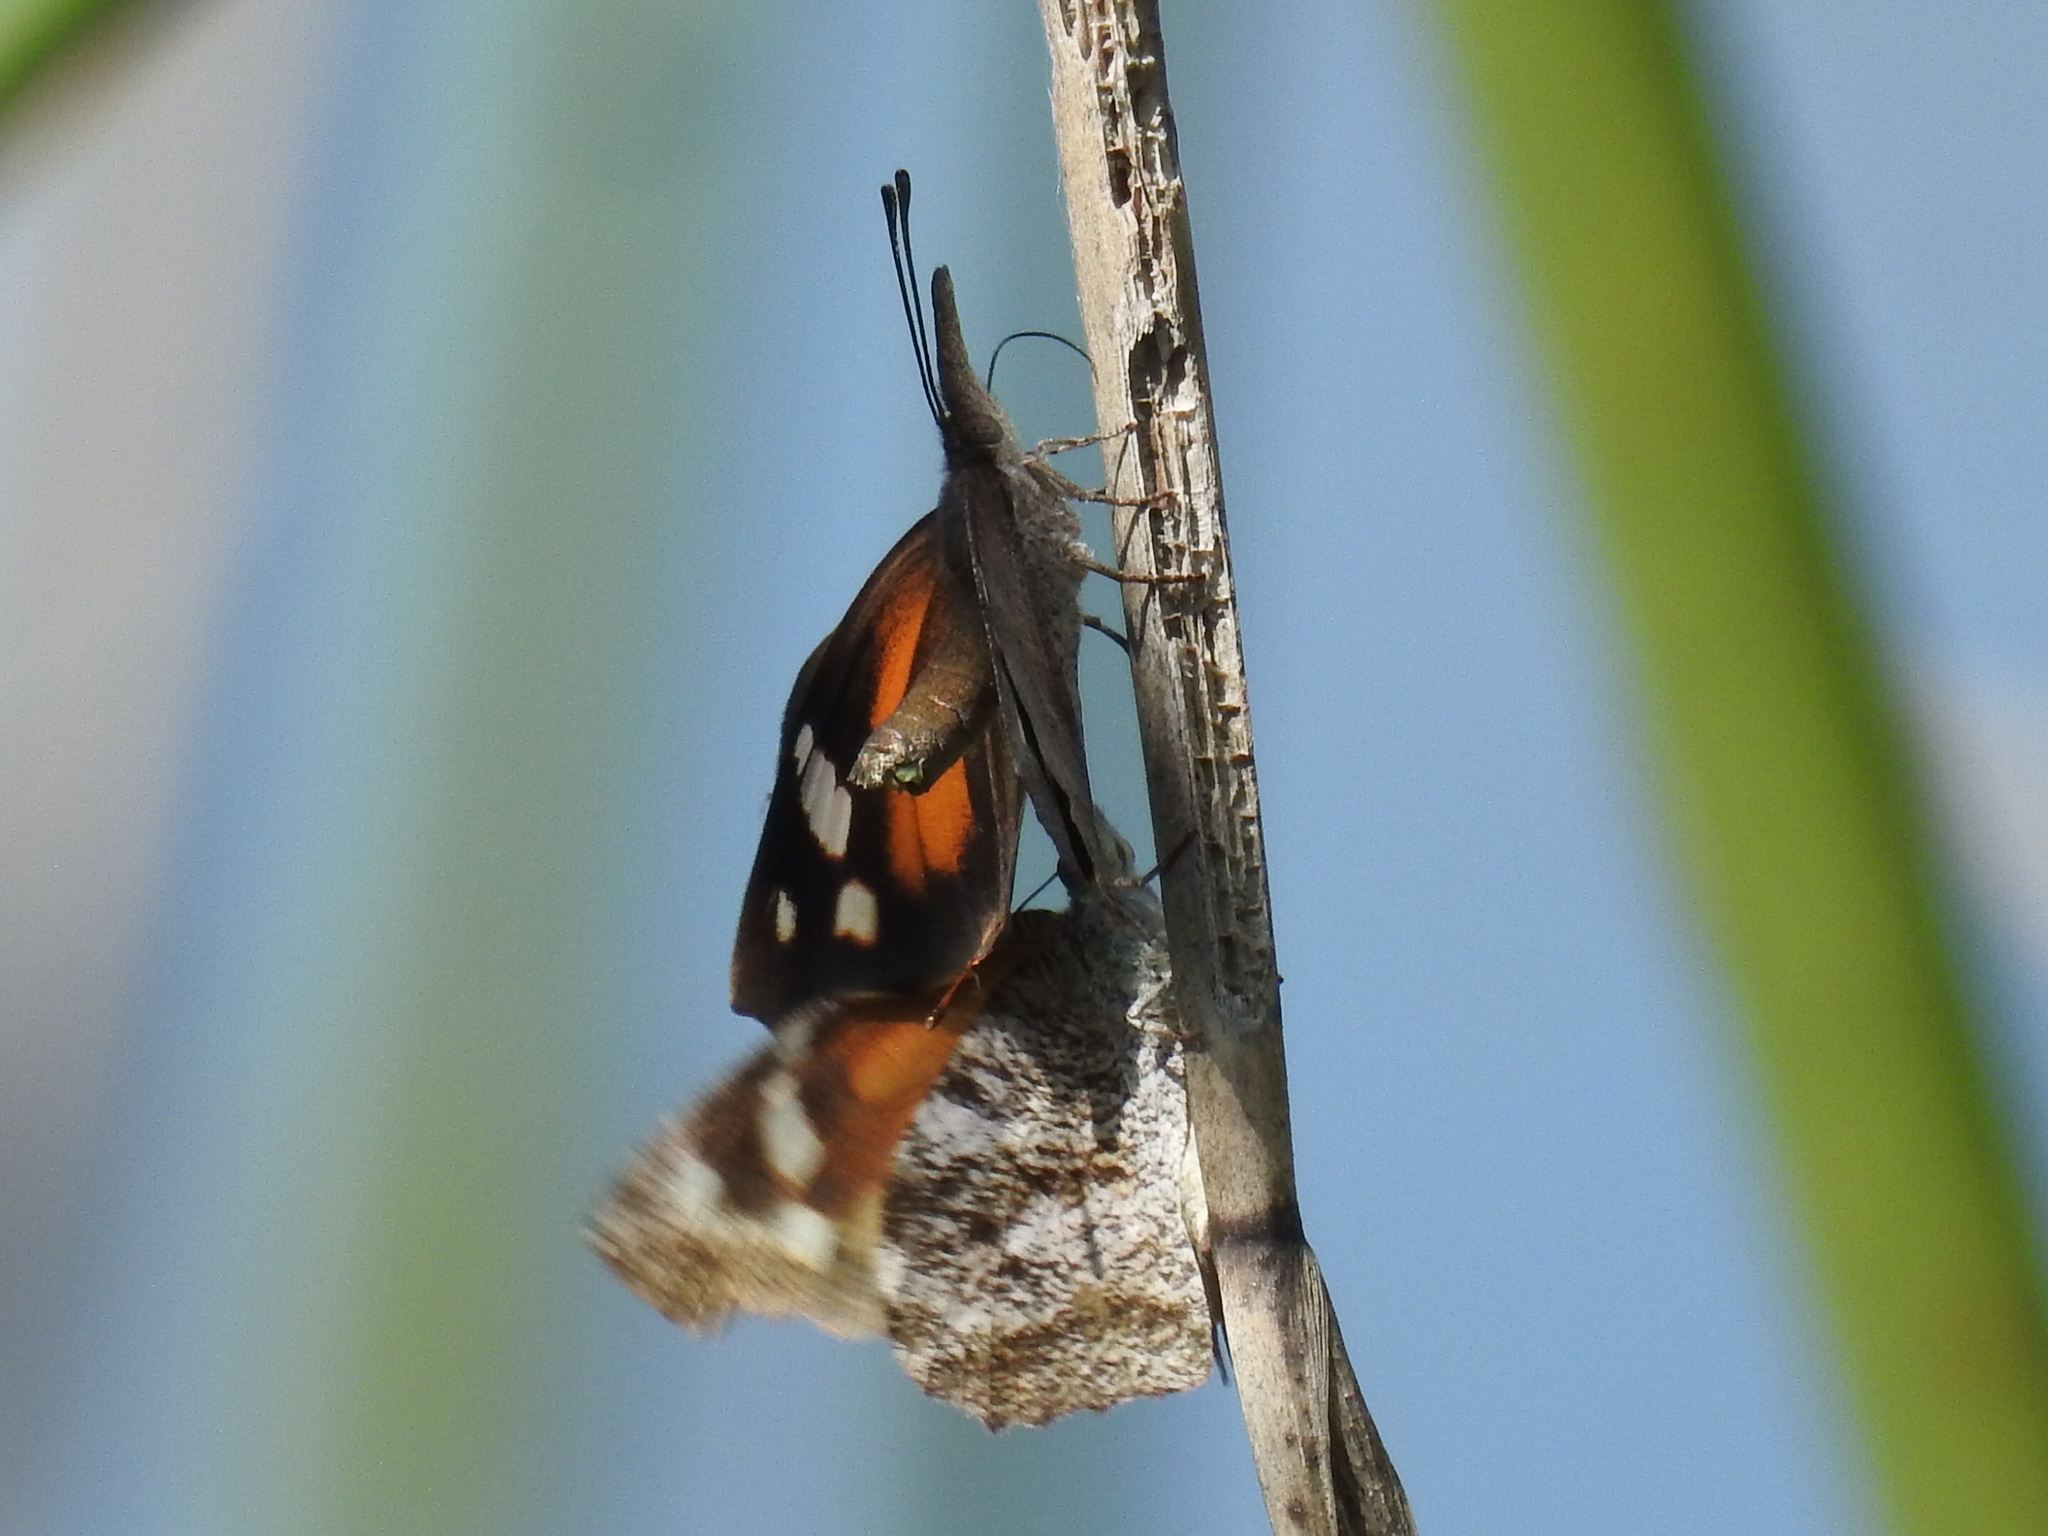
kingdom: Animalia
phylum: Arthropoda
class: Insecta
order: Lepidoptera
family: Nymphalidae
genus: Libytheana
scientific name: Libytheana carinenta
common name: American snout
